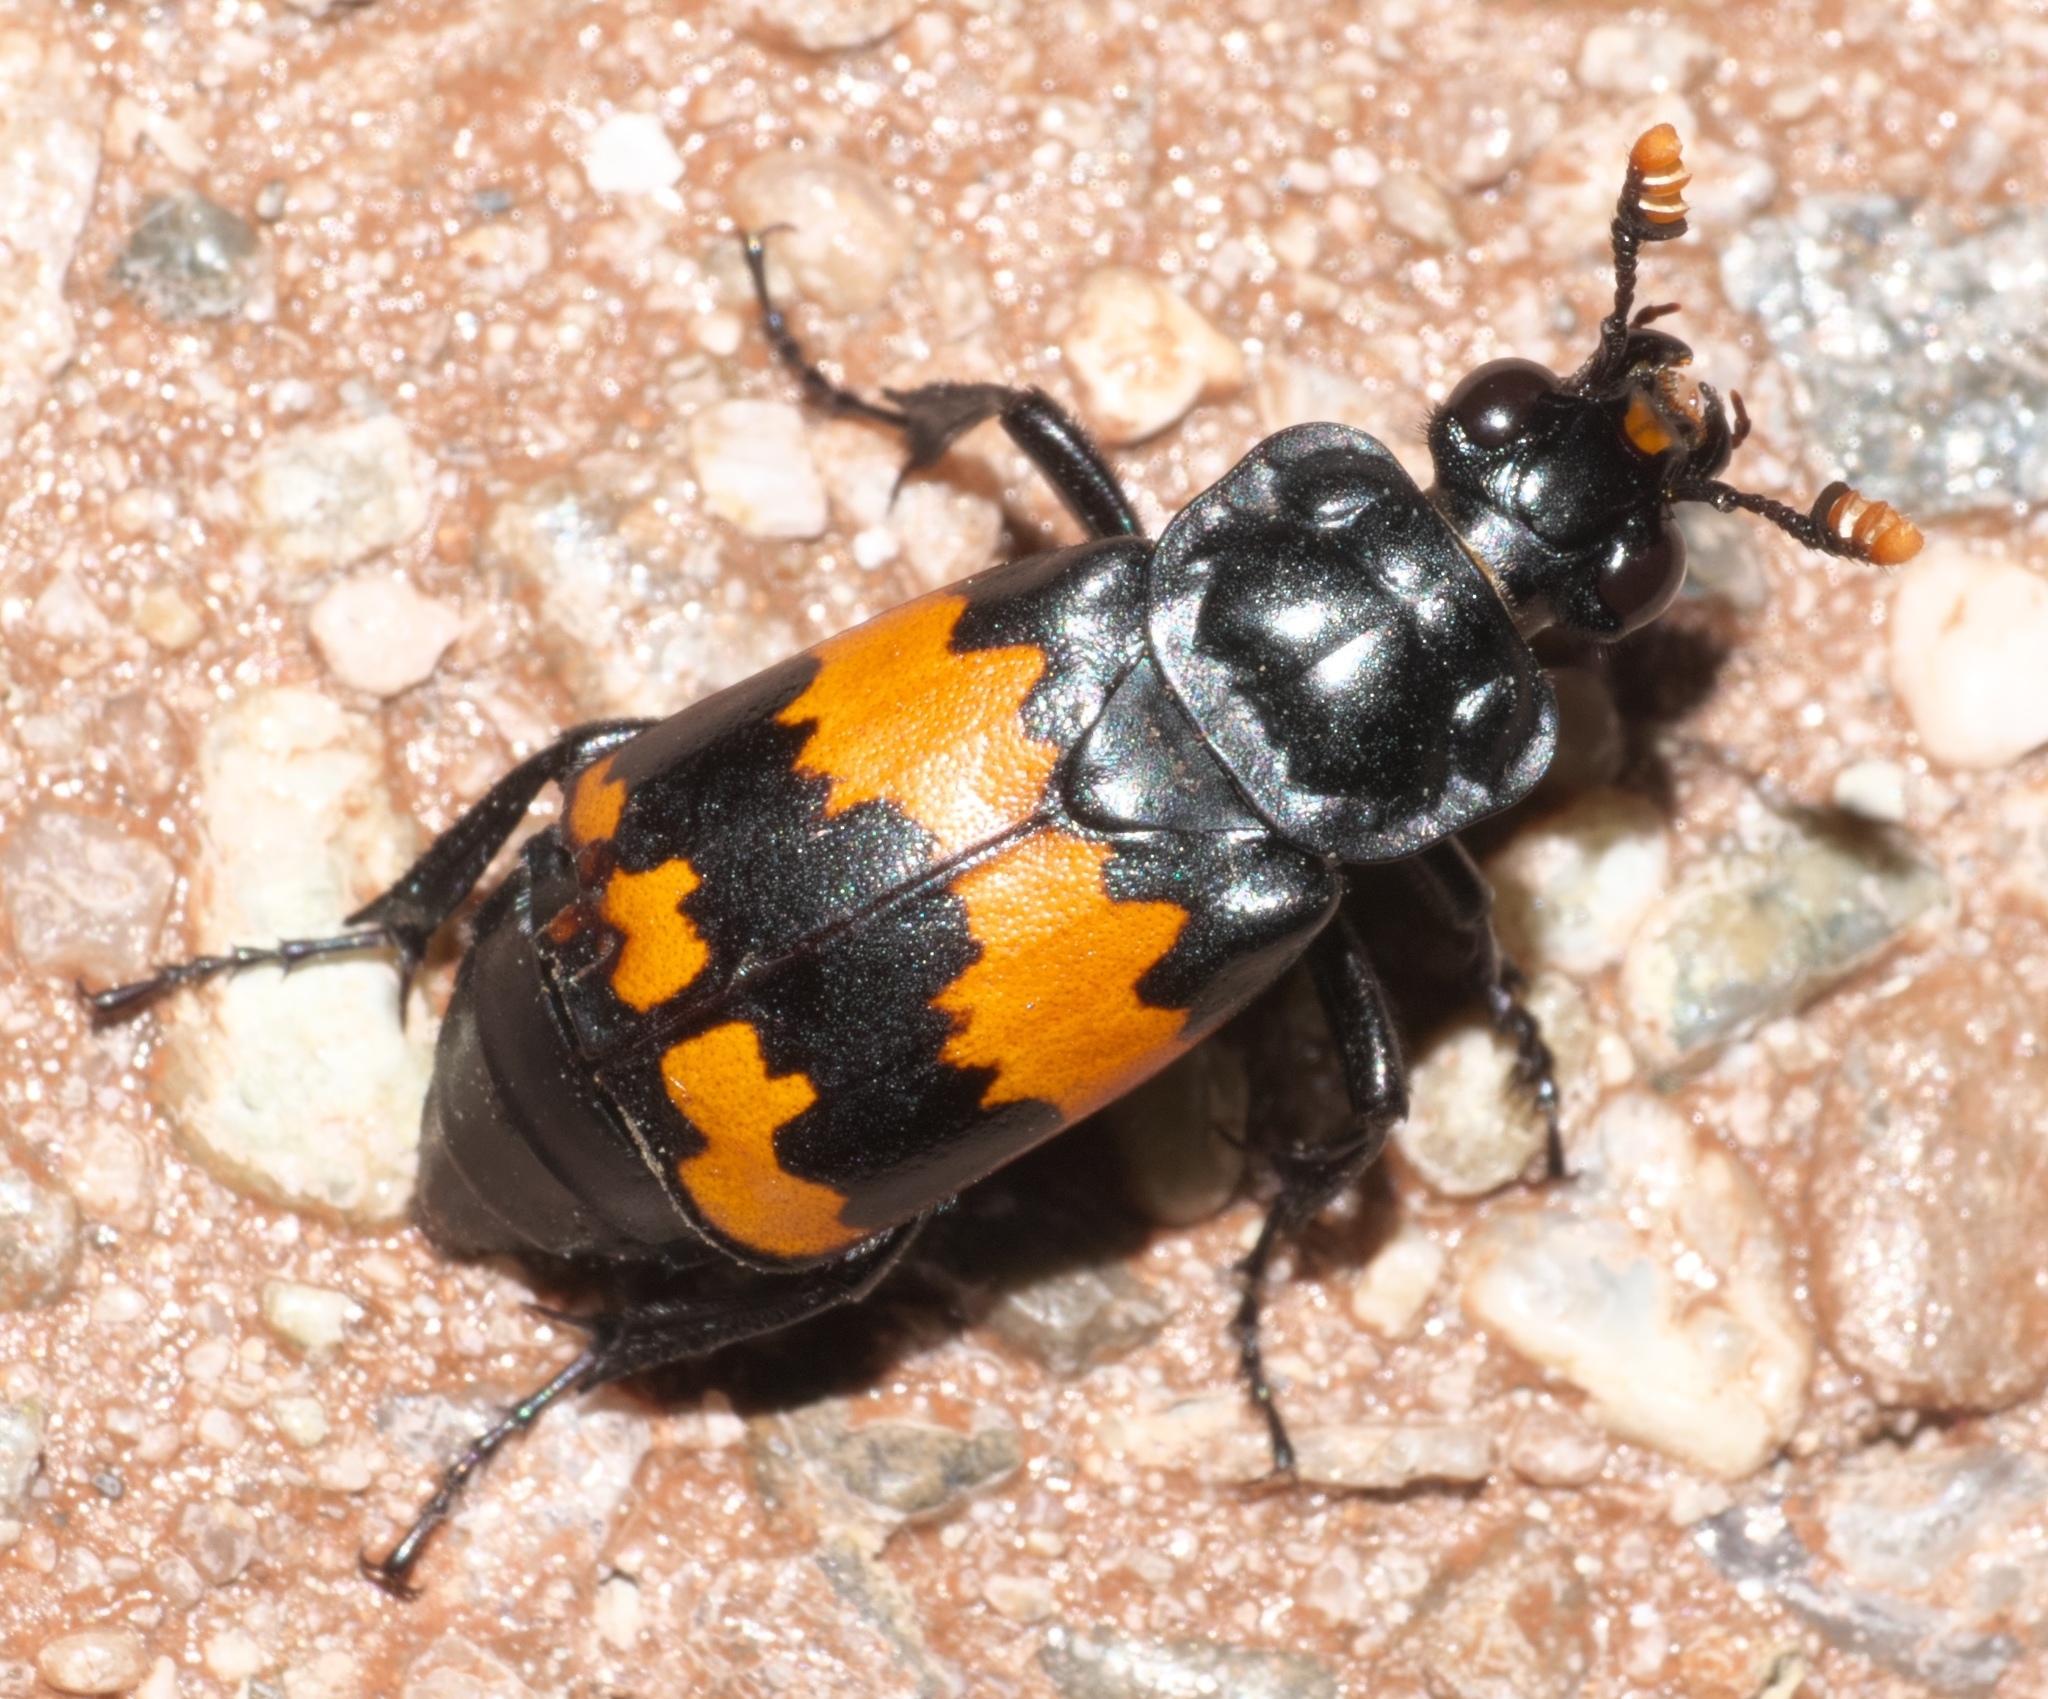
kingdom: Animalia
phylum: Arthropoda
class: Insecta
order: Coleoptera
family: Staphylinidae
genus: Nicrophorus
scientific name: Nicrophorus mexicanus
